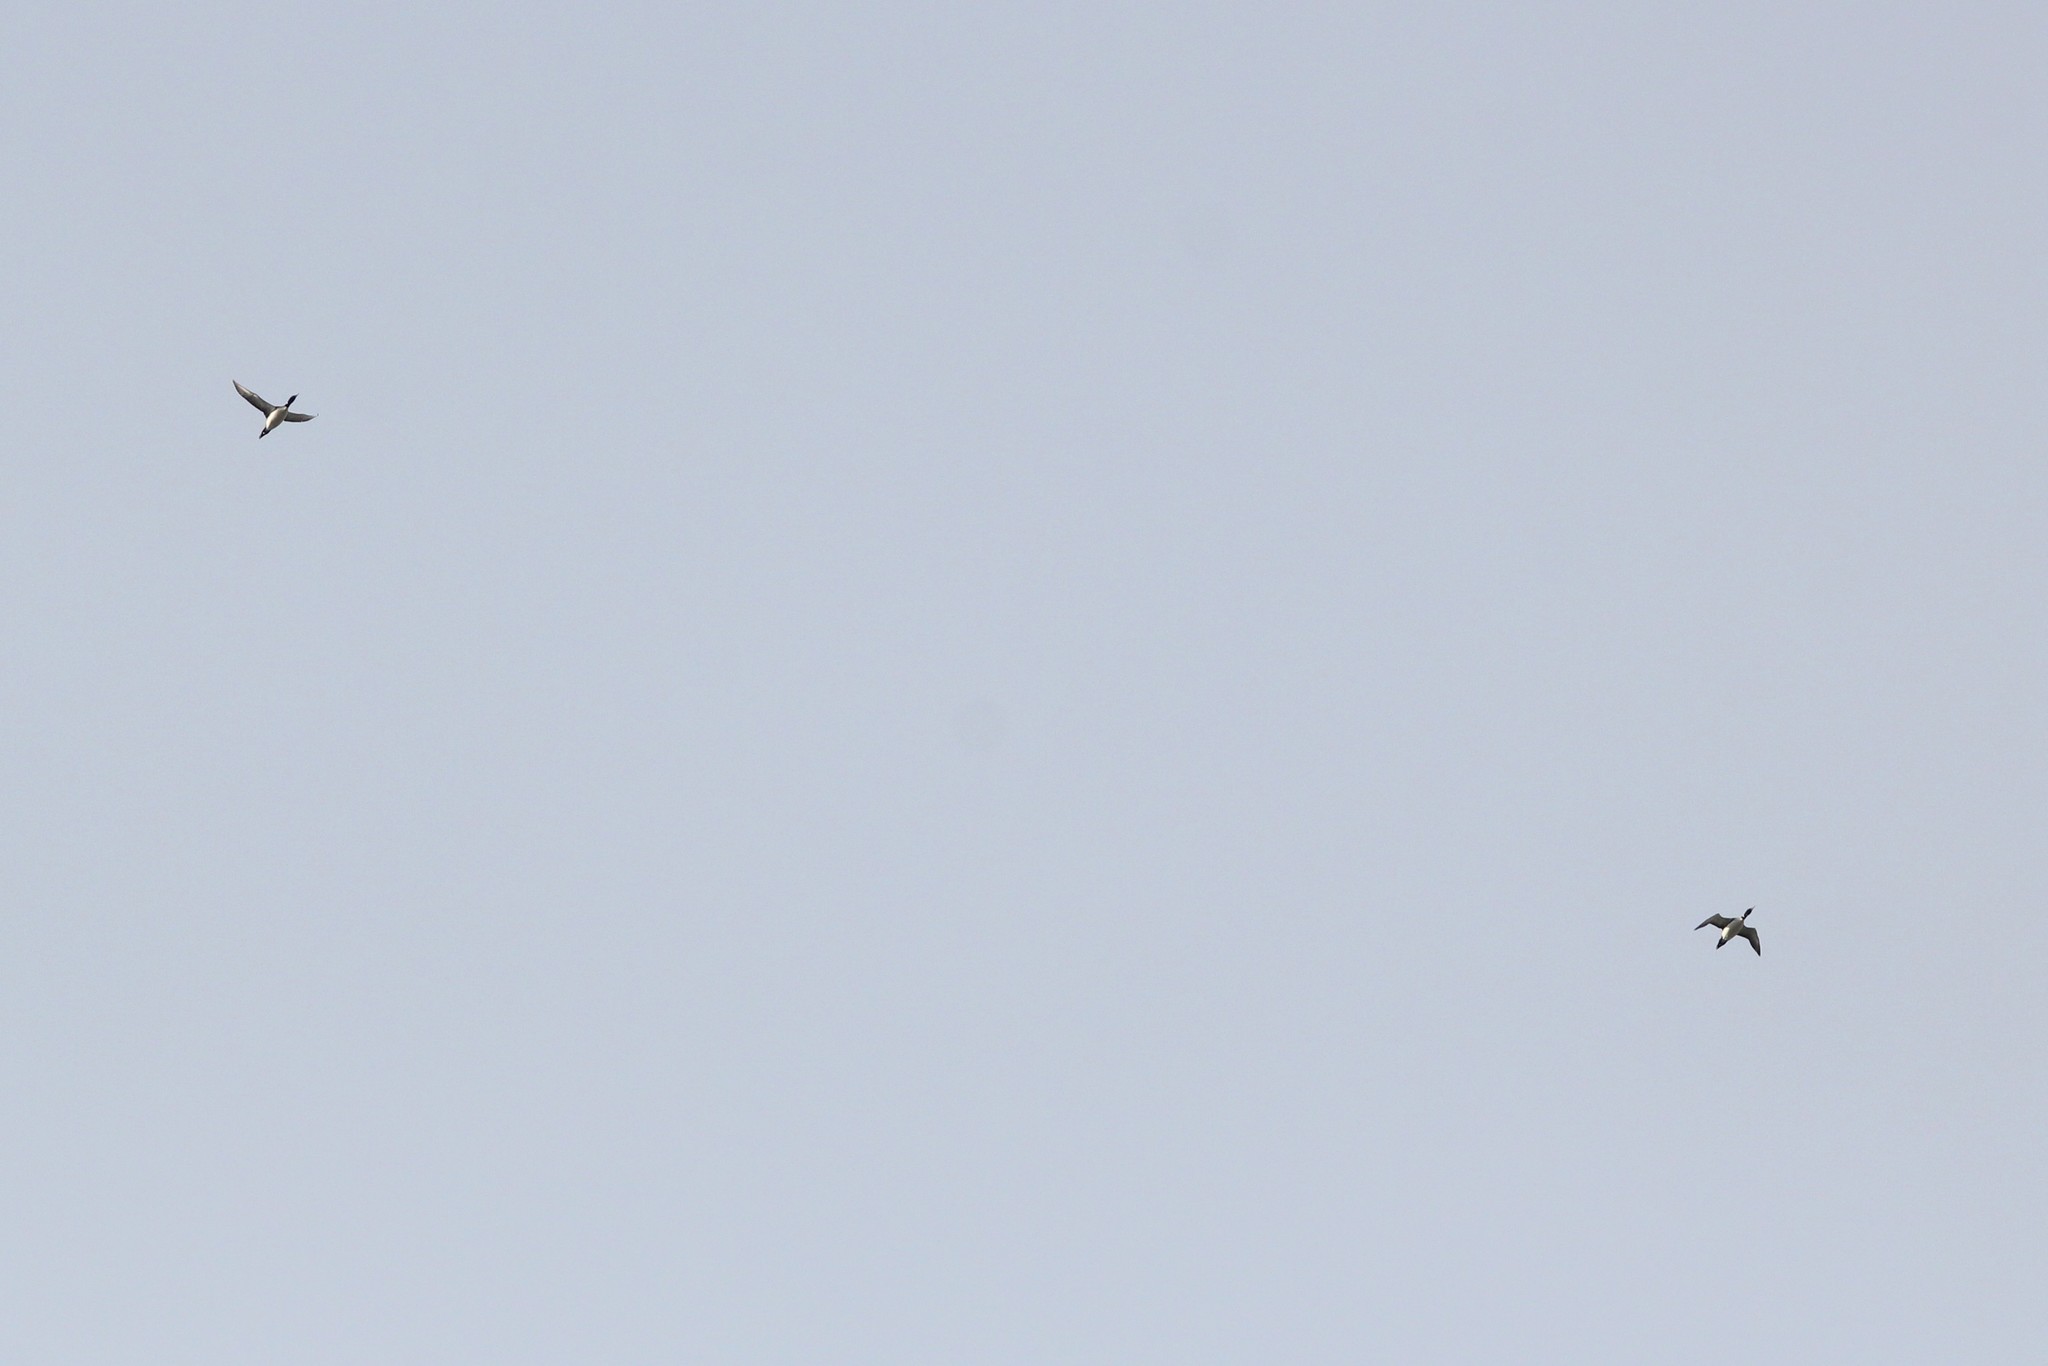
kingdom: Animalia
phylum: Chordata
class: Aves
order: Gaviiformes
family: Gaviidae
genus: Gavia
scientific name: Gavia immer
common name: Common loon
